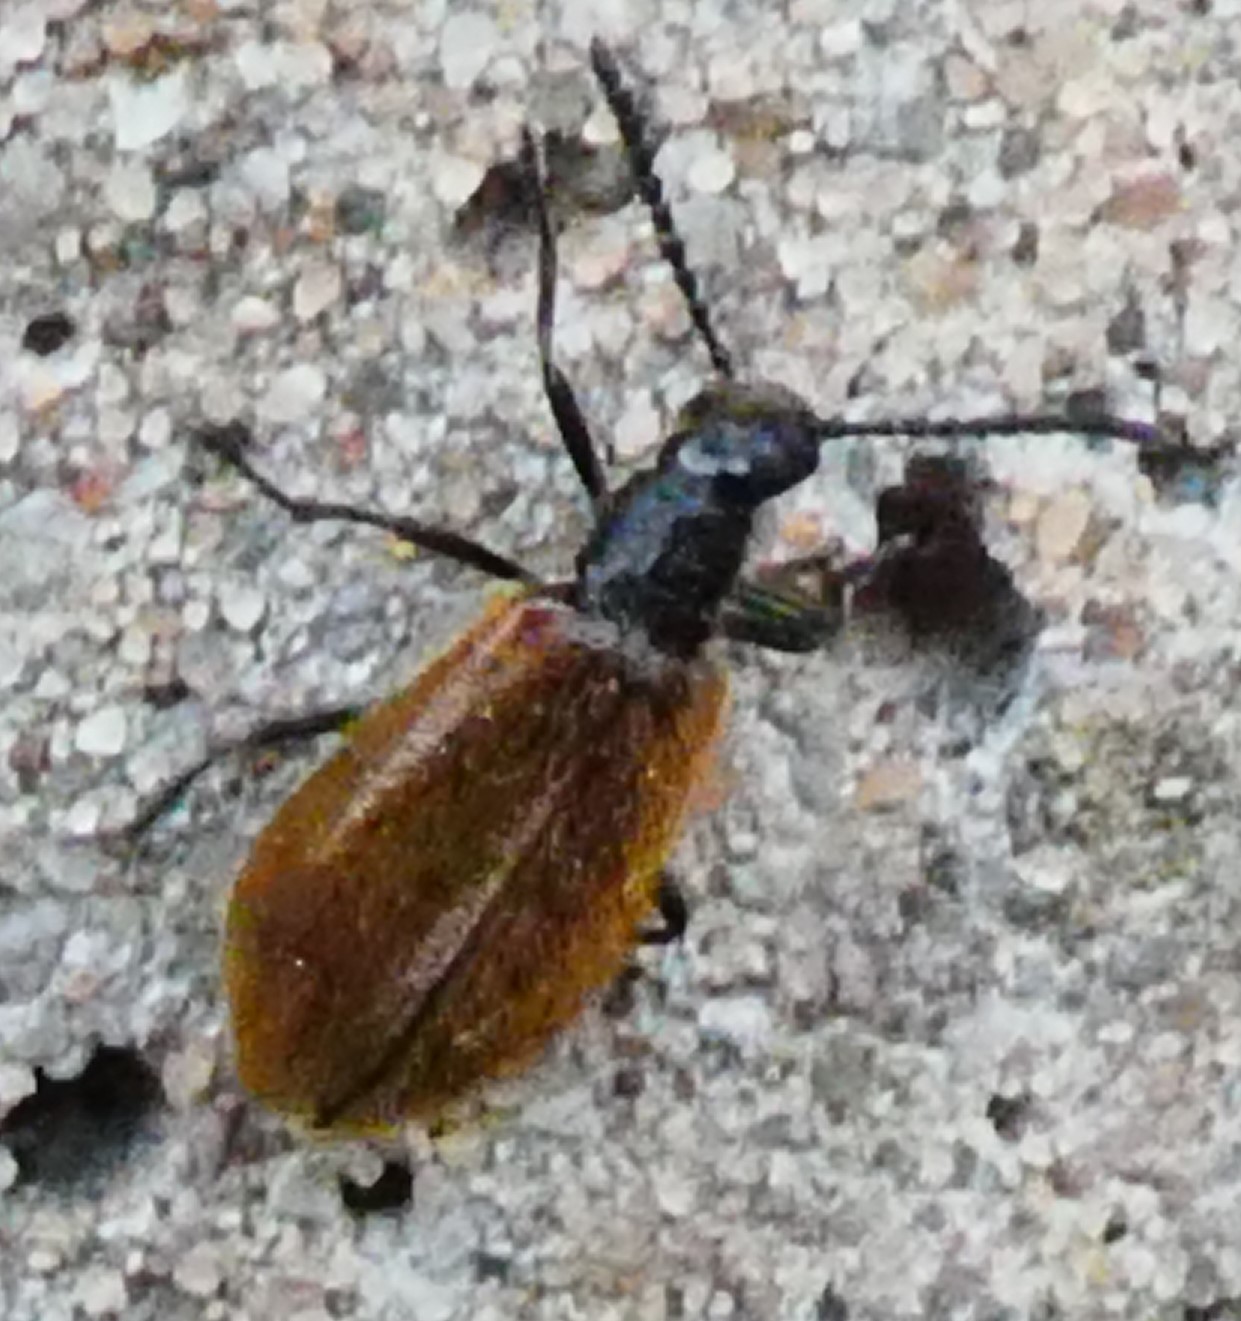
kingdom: Animalia
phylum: Arthropoda
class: Insecta
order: Coleoptera
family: Tenebrionidae
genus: Lagria
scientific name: Lagria hirta
